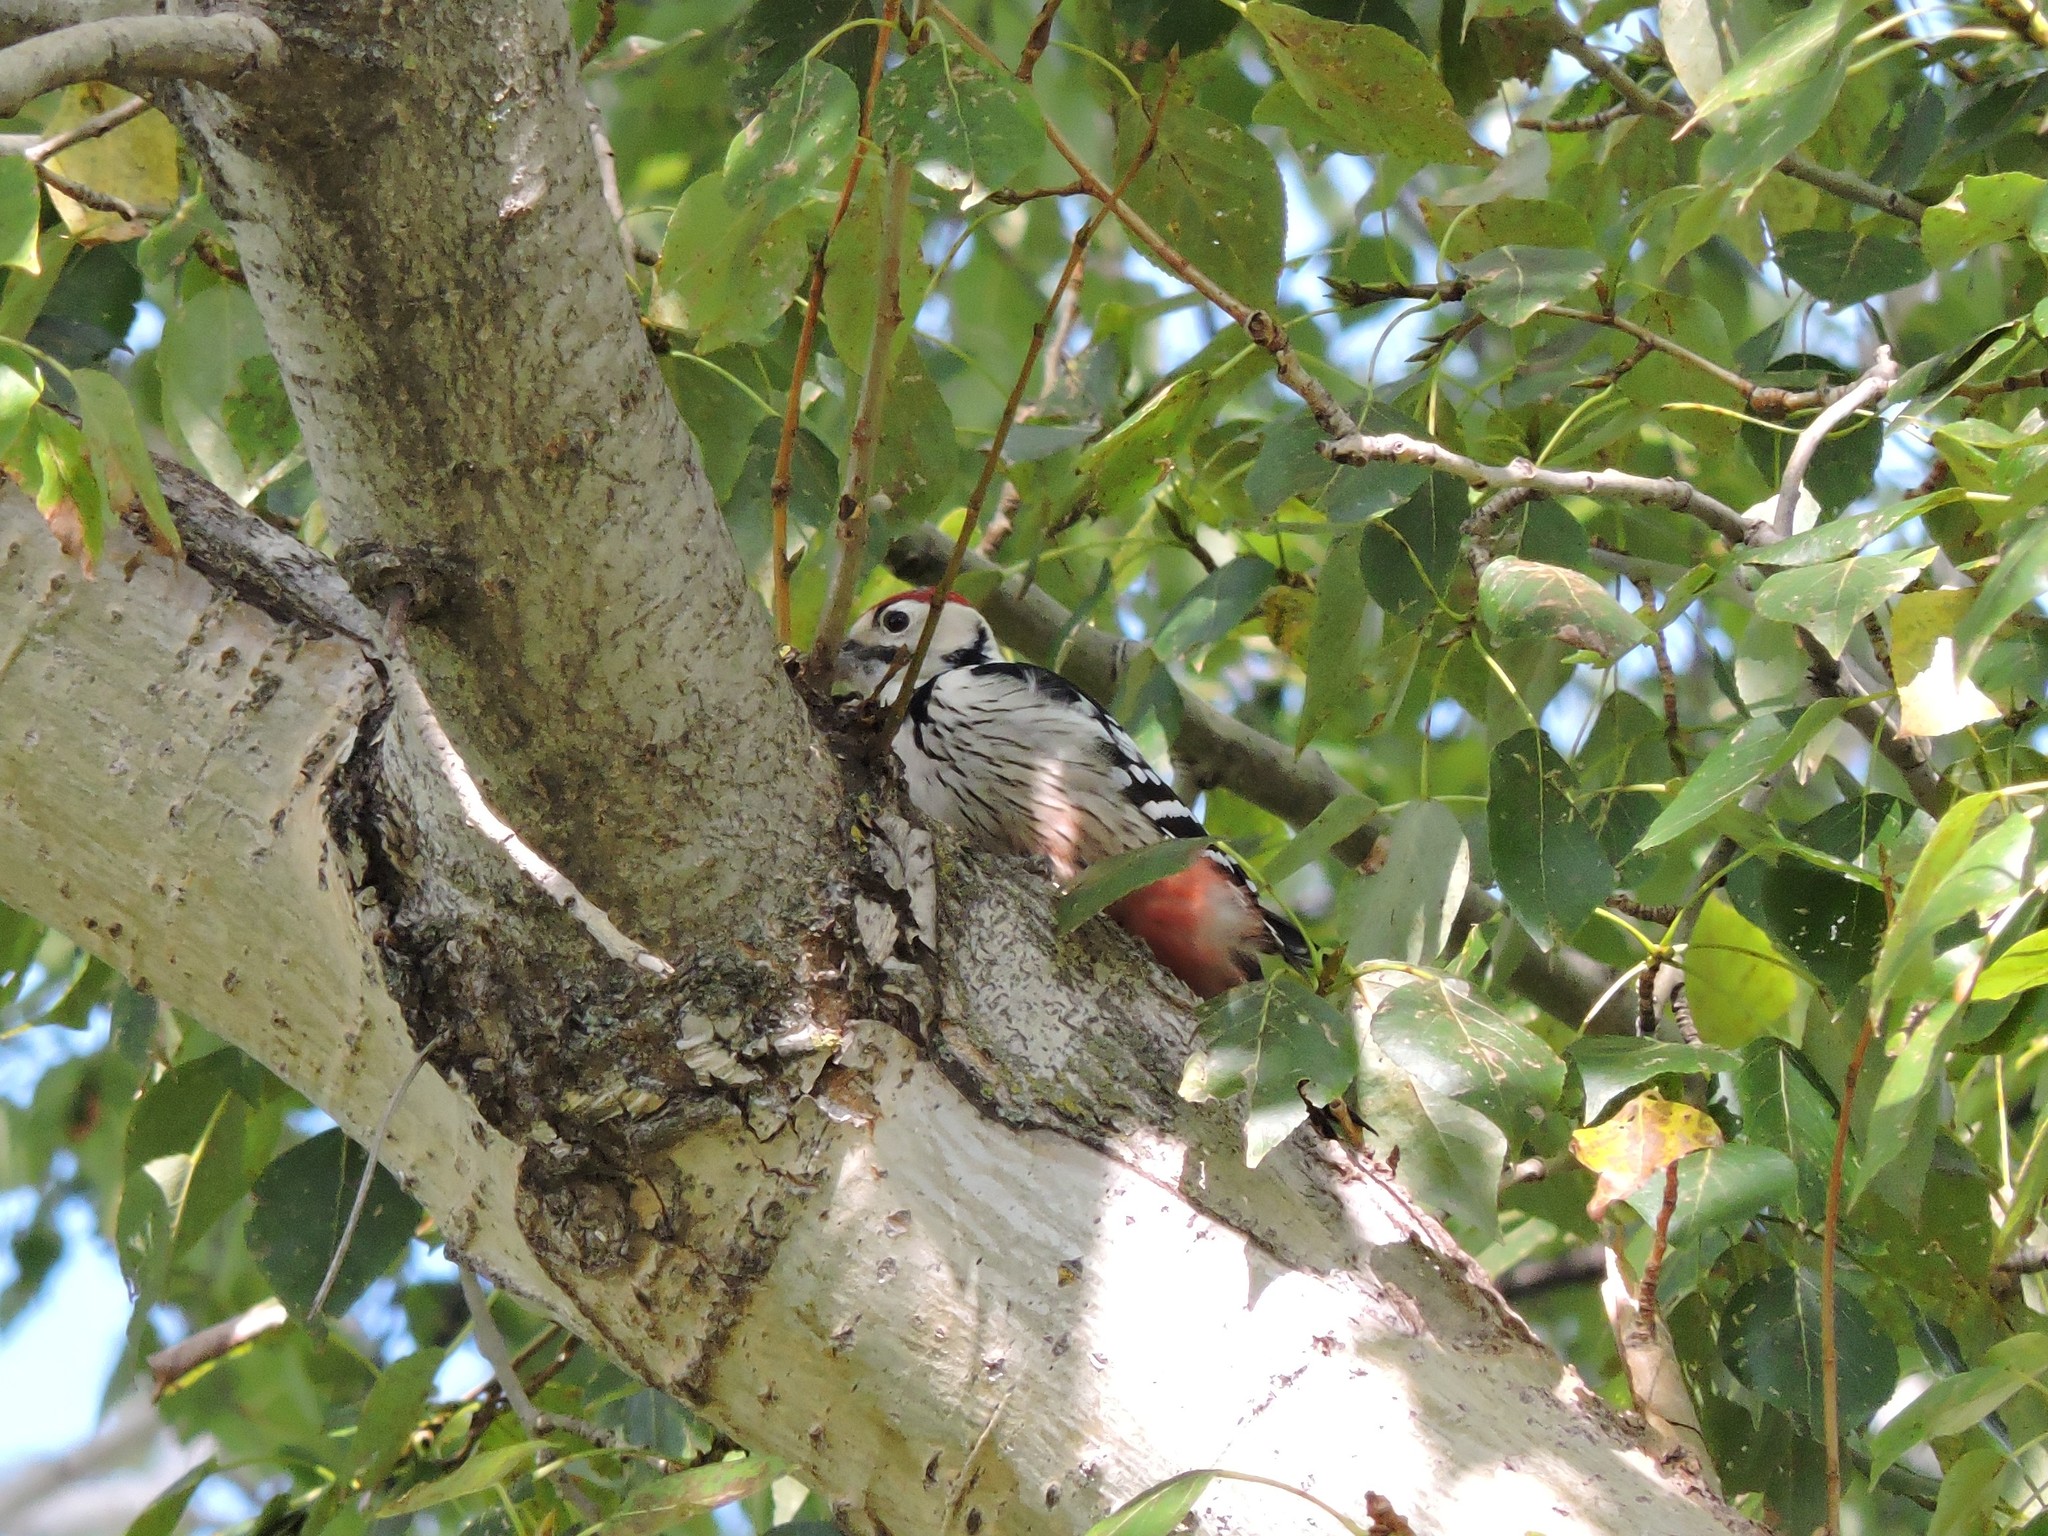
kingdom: Animalia
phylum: Chordata
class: Aves
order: Piciformes
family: Picidae
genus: Dendrocopos
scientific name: Dendrocopos leucotos
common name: White-backed woodpecker
